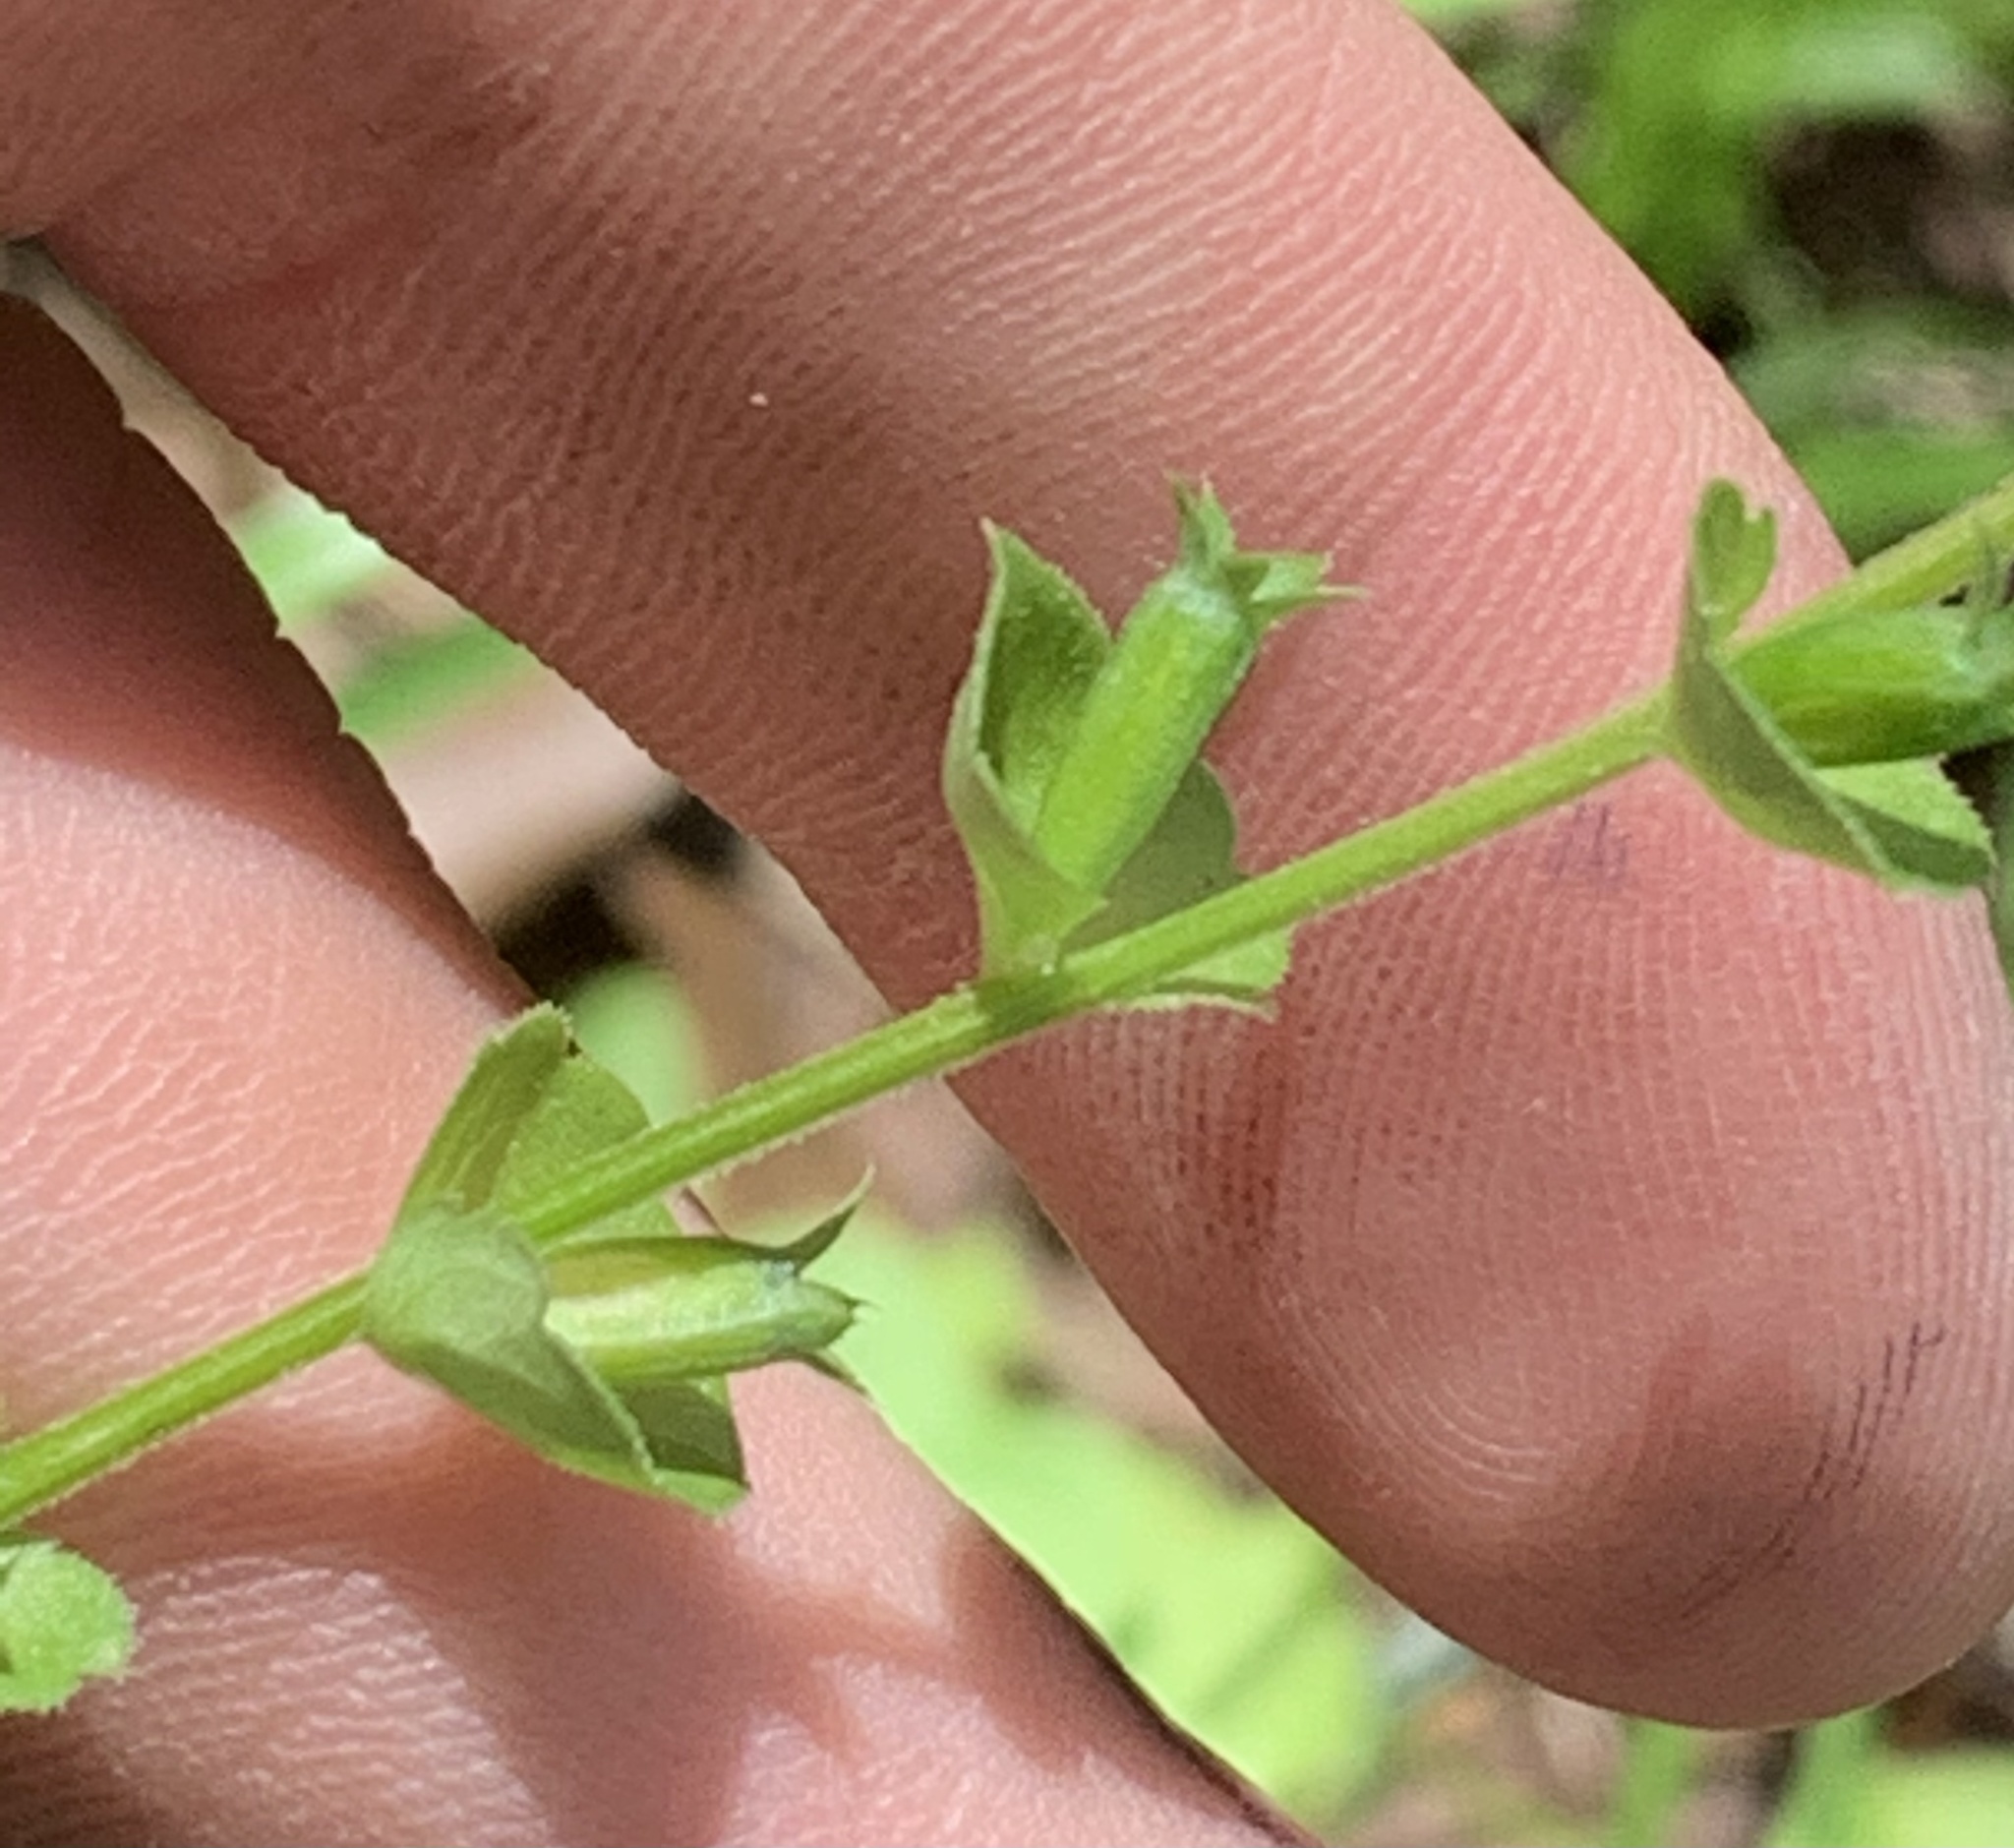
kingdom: Plantae
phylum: Tracheophyta
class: Magnoliopsida
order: Asterales
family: Campanulaceae
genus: Triodanis
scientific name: Triodanis perfoliata
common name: Clasping venus' looking-glass
